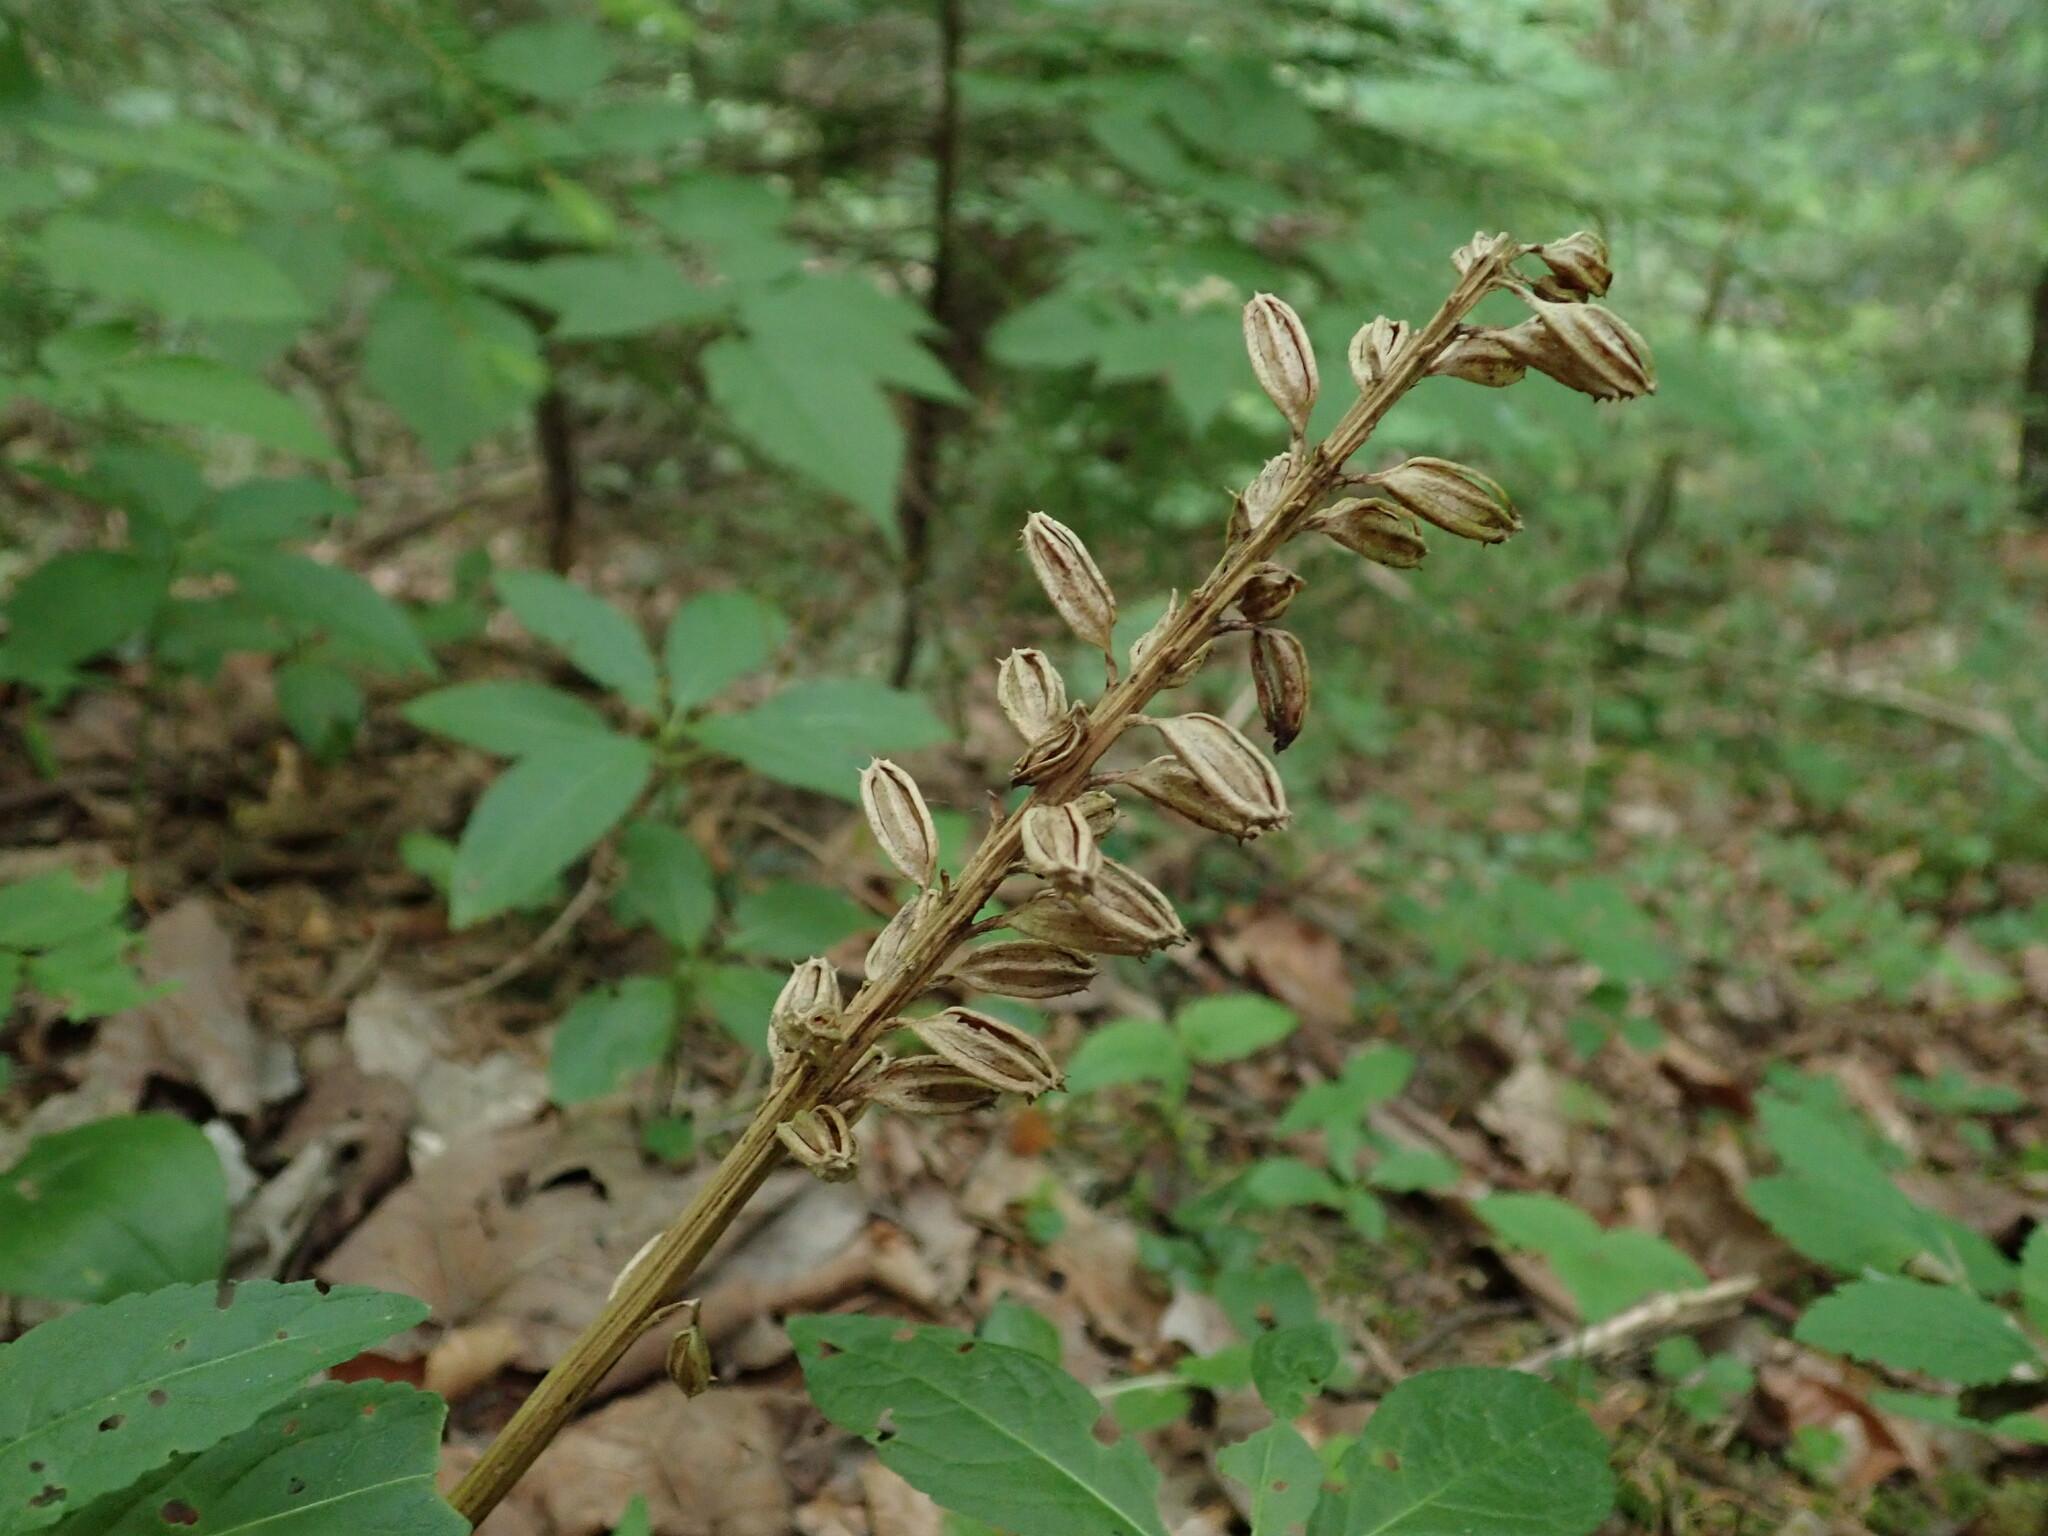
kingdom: Plantae
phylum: Tracheophyta
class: Liliopsida
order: Asparagales
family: Orchidaceae
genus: Neottia
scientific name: Neottia nidus-avis
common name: Bird's-nest orchid
